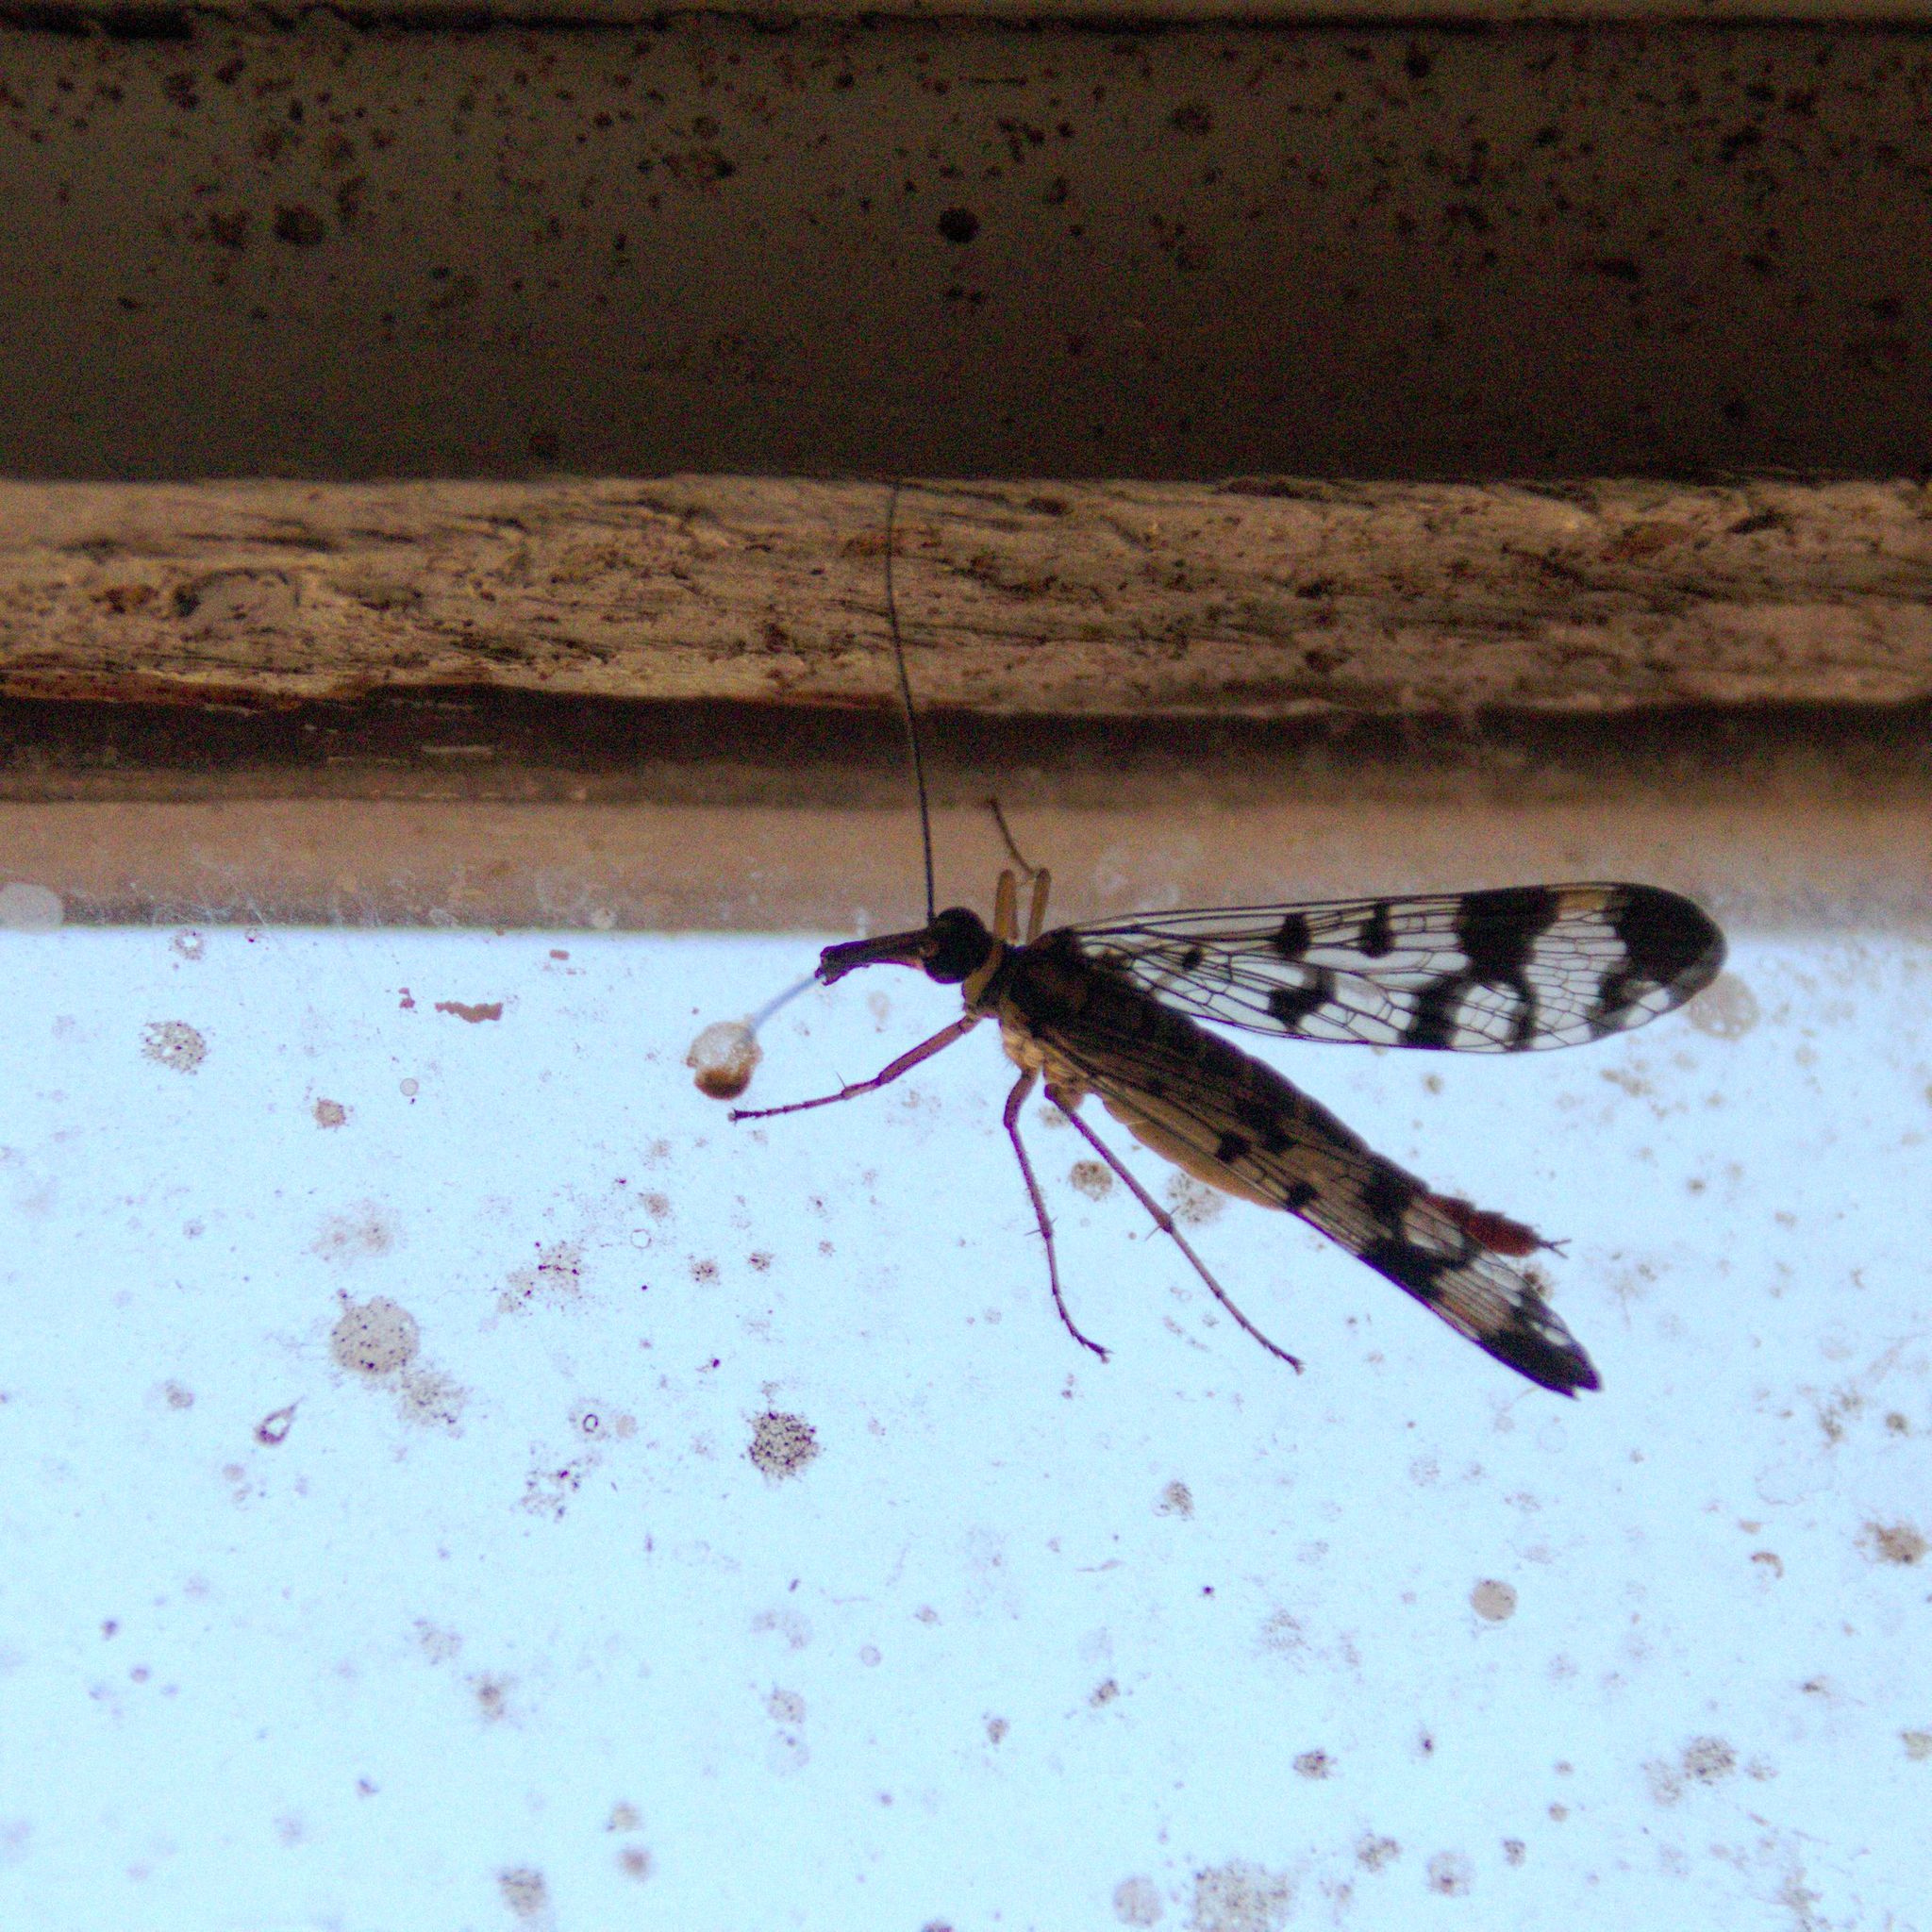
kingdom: Animalia
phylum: Arthropoda
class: Insecta
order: Mecoptera
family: Panorpidae
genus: Panorpa
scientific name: Panorpa communis
